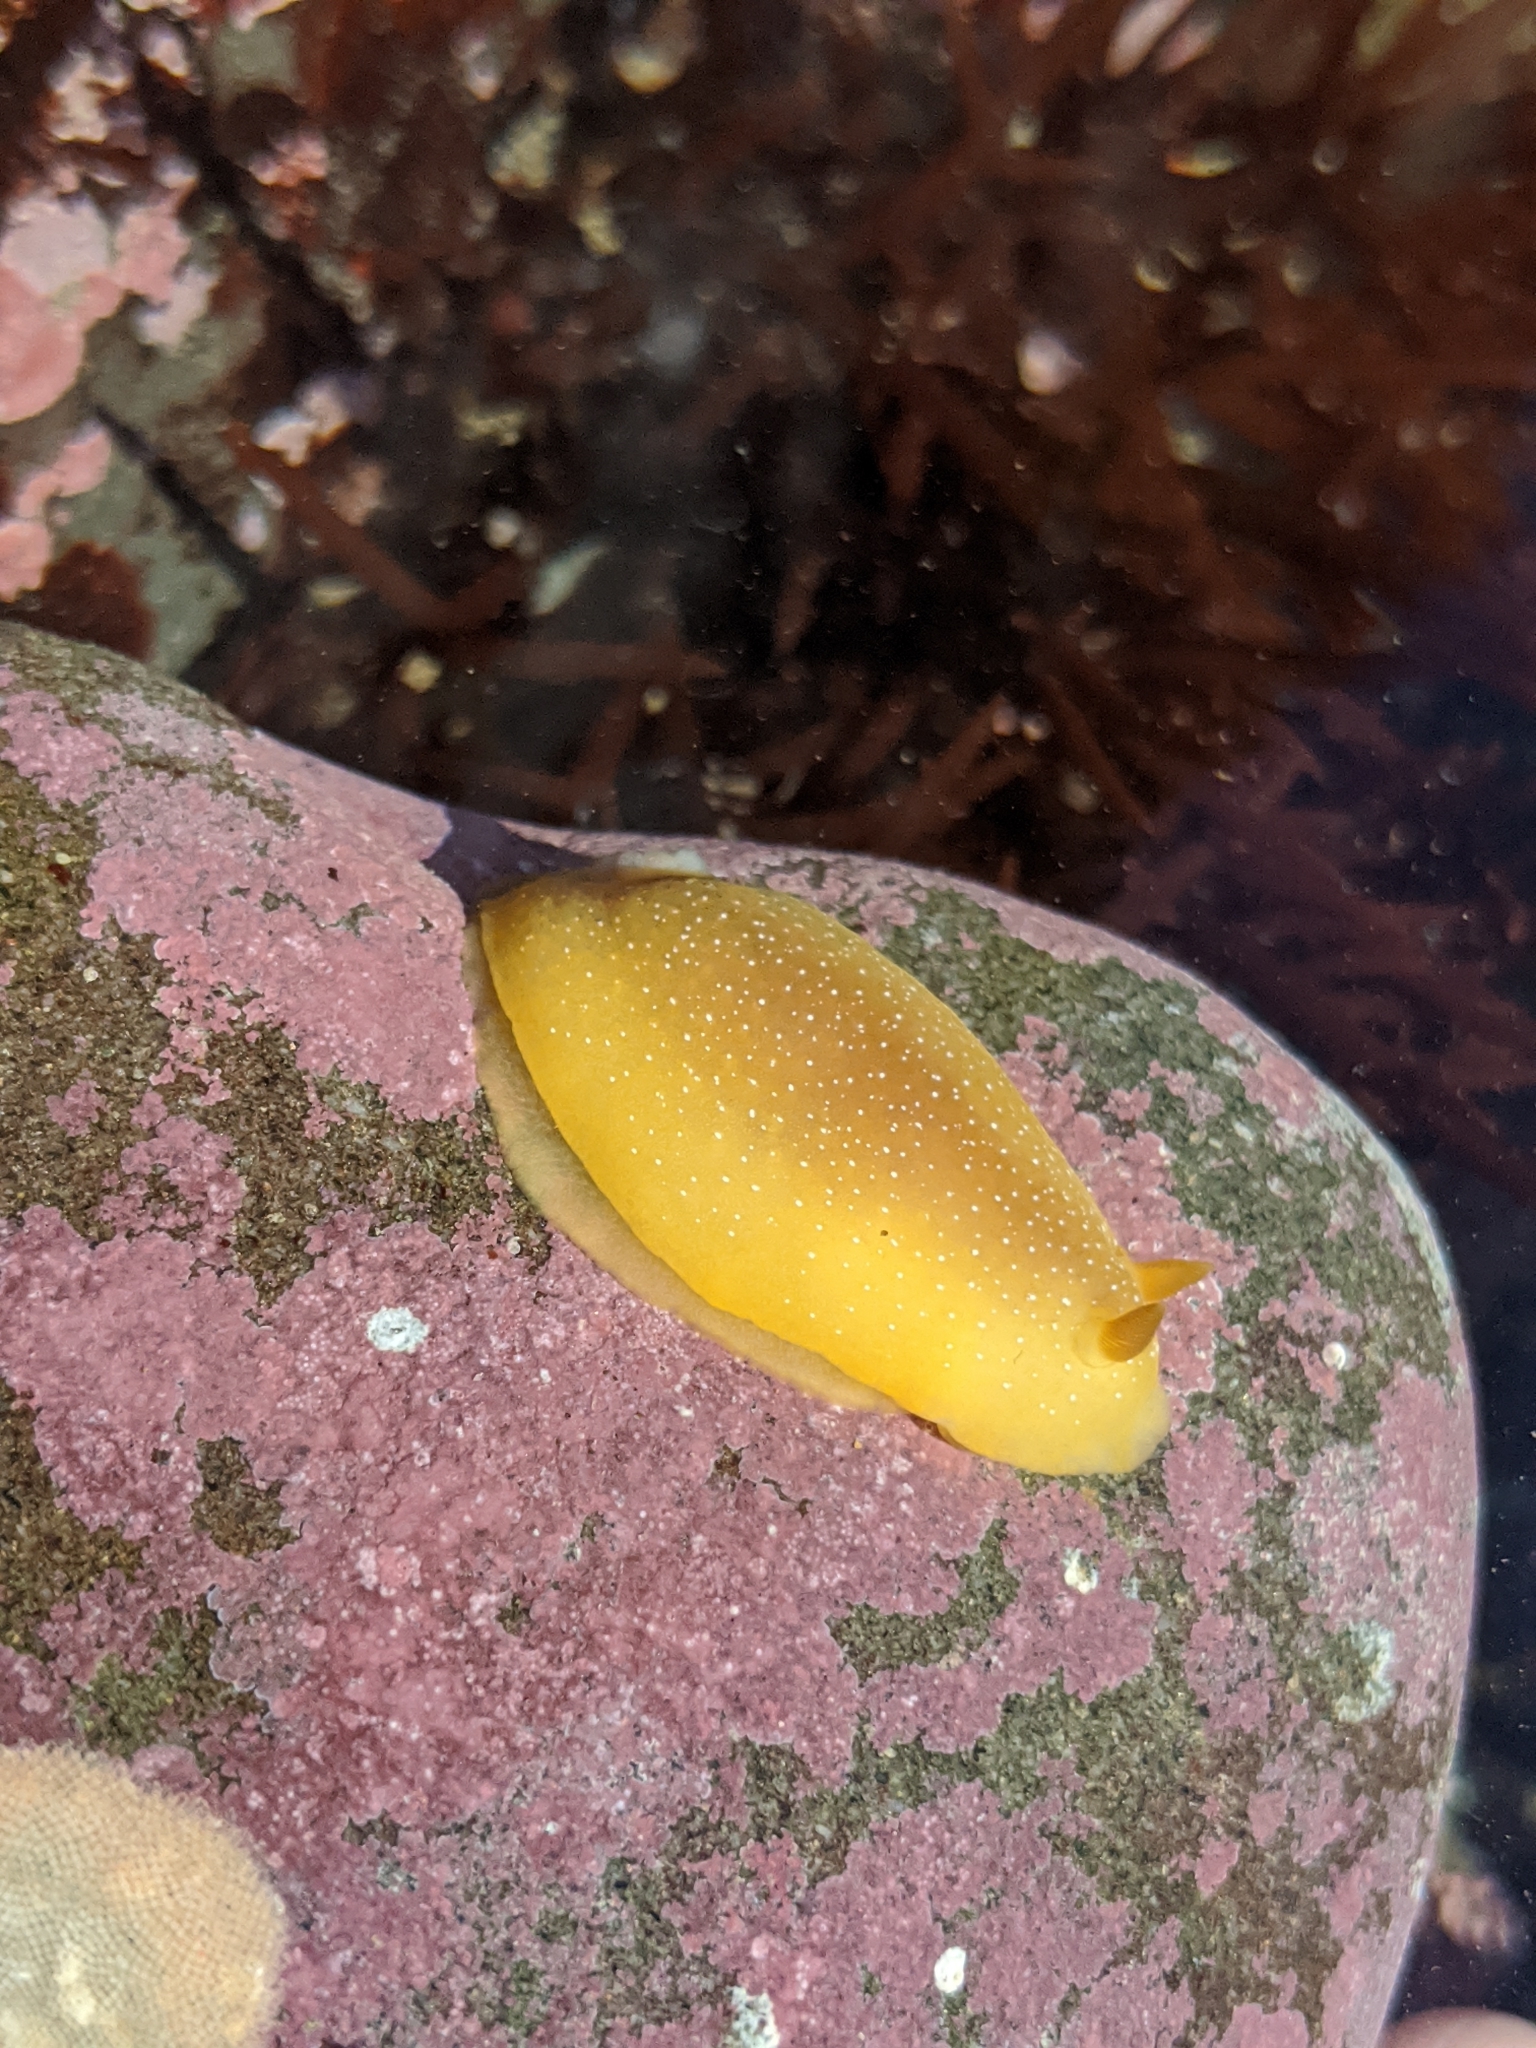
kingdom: Animalia
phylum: Mollusca
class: Gastropoda
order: Nudibranchia
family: Dendrodorididae
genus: Doriopsilla
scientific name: Doriopsilla albopunctata
